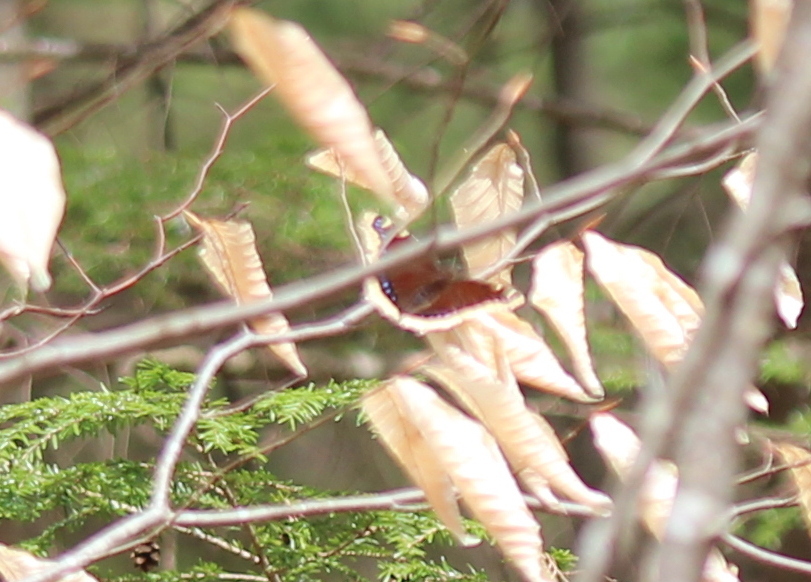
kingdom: Animalia
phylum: Arthropoda
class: Insecta
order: Lepidoptera
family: Nymphalidae
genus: Nymphalis
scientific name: Nymphalis antiopa
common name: Camberwell beauty
